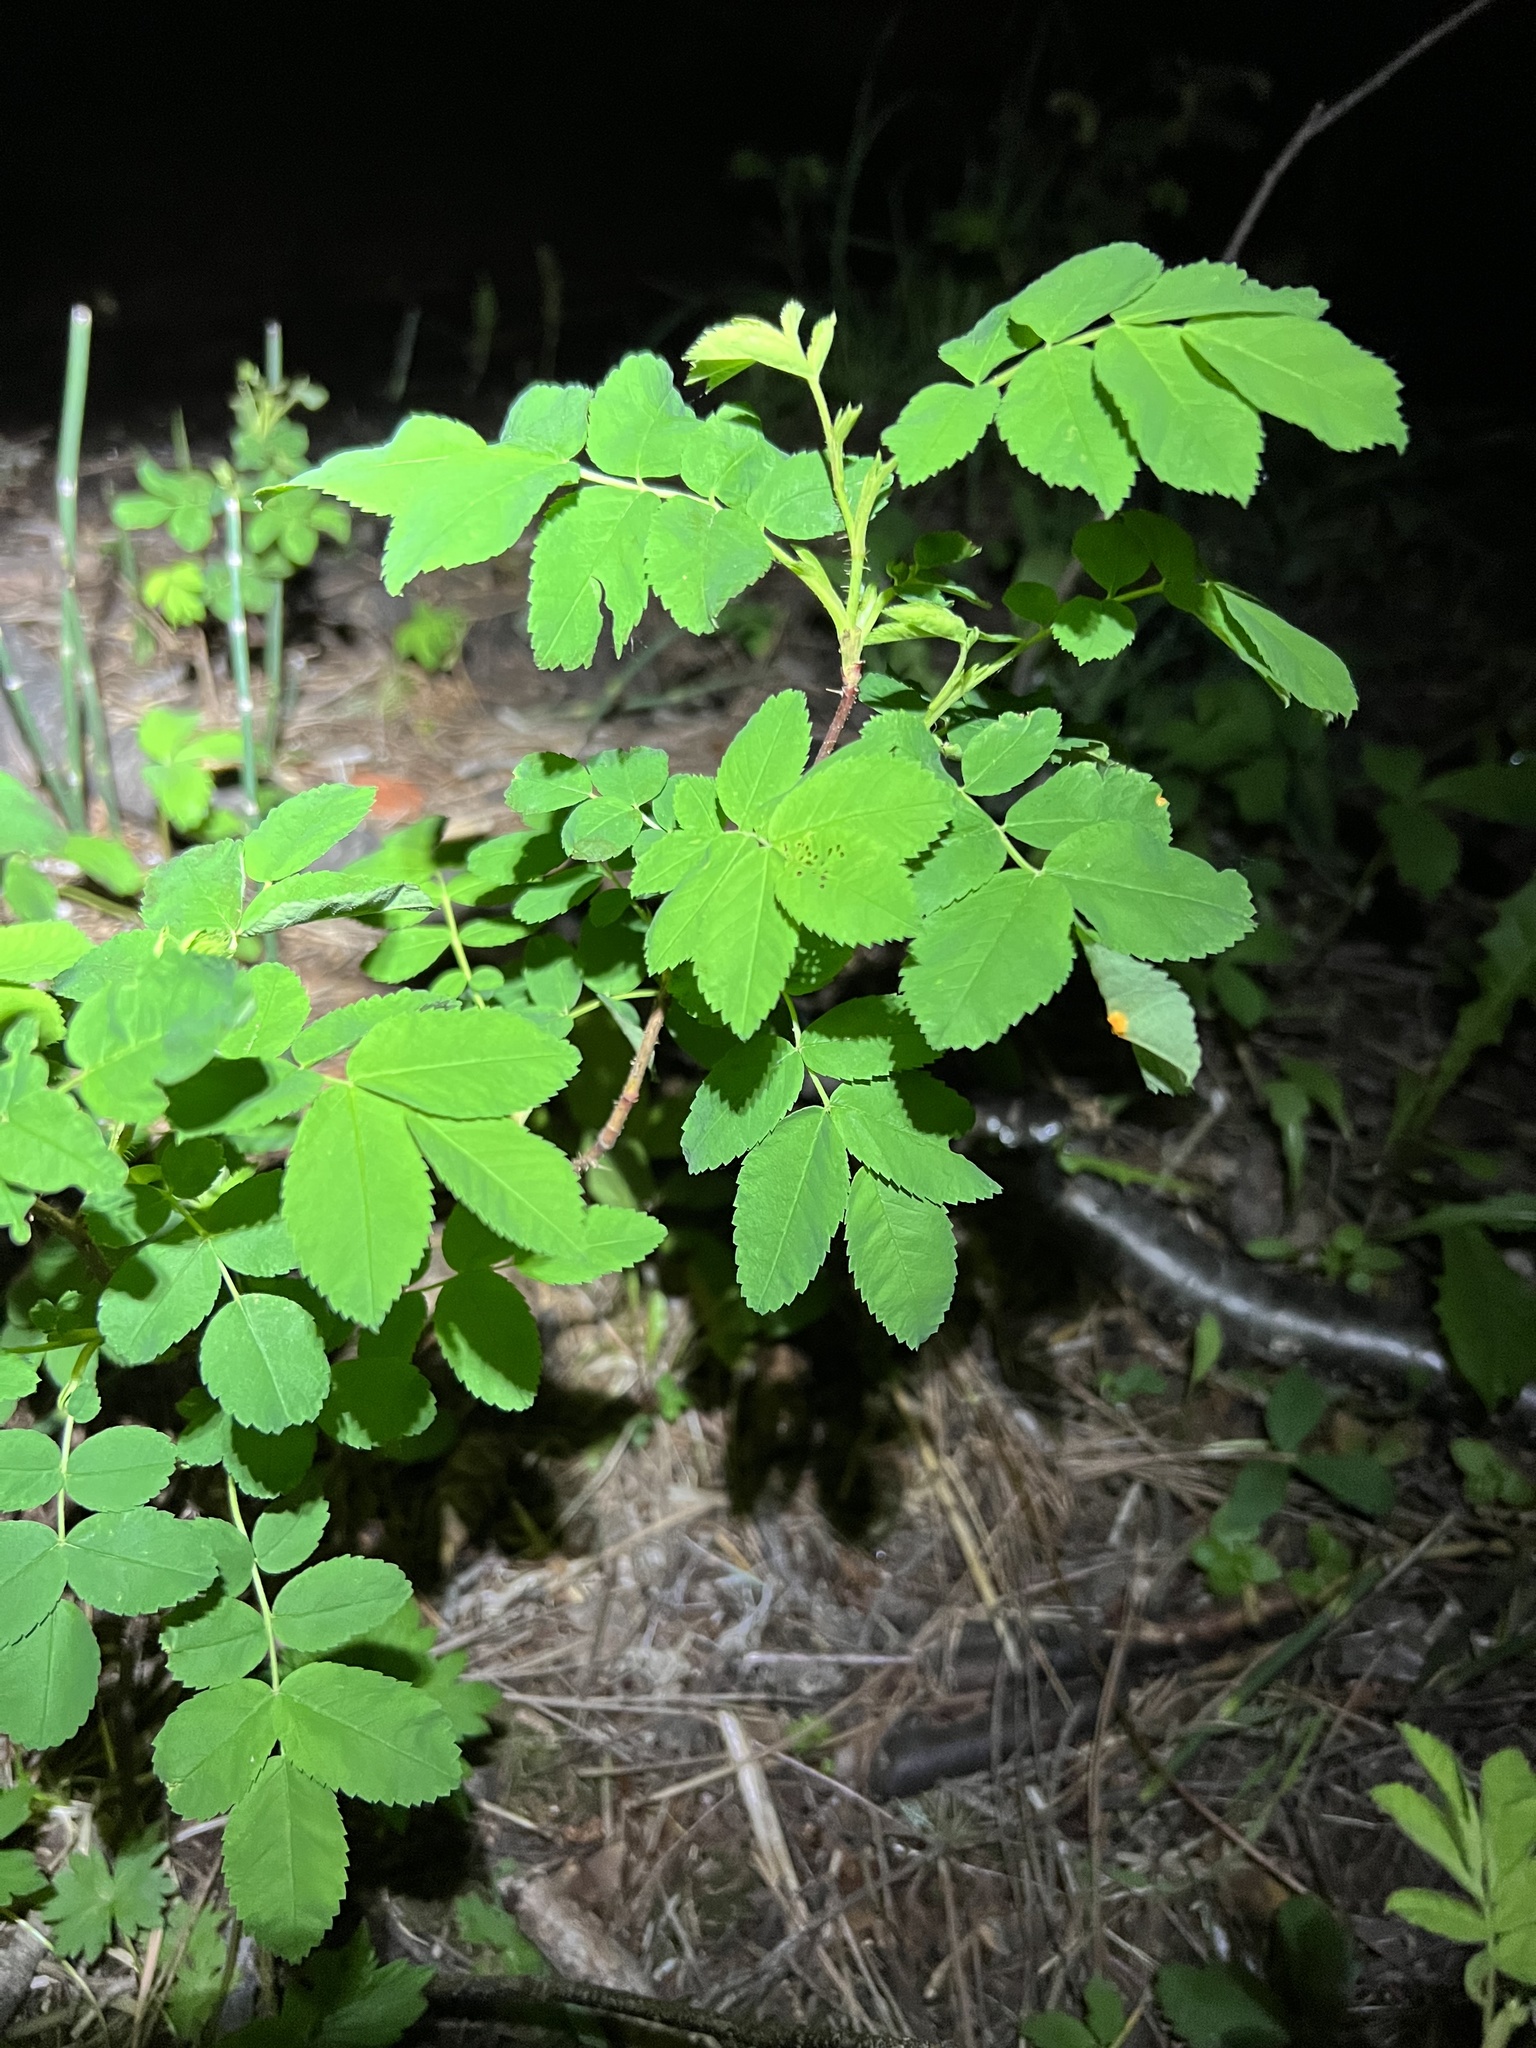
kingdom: Plantae
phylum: Tracheophyta
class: Magnoliopsida
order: Rosales
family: Rosaceae
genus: Rosa
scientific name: Rosa acicularis
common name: Prickly rose
